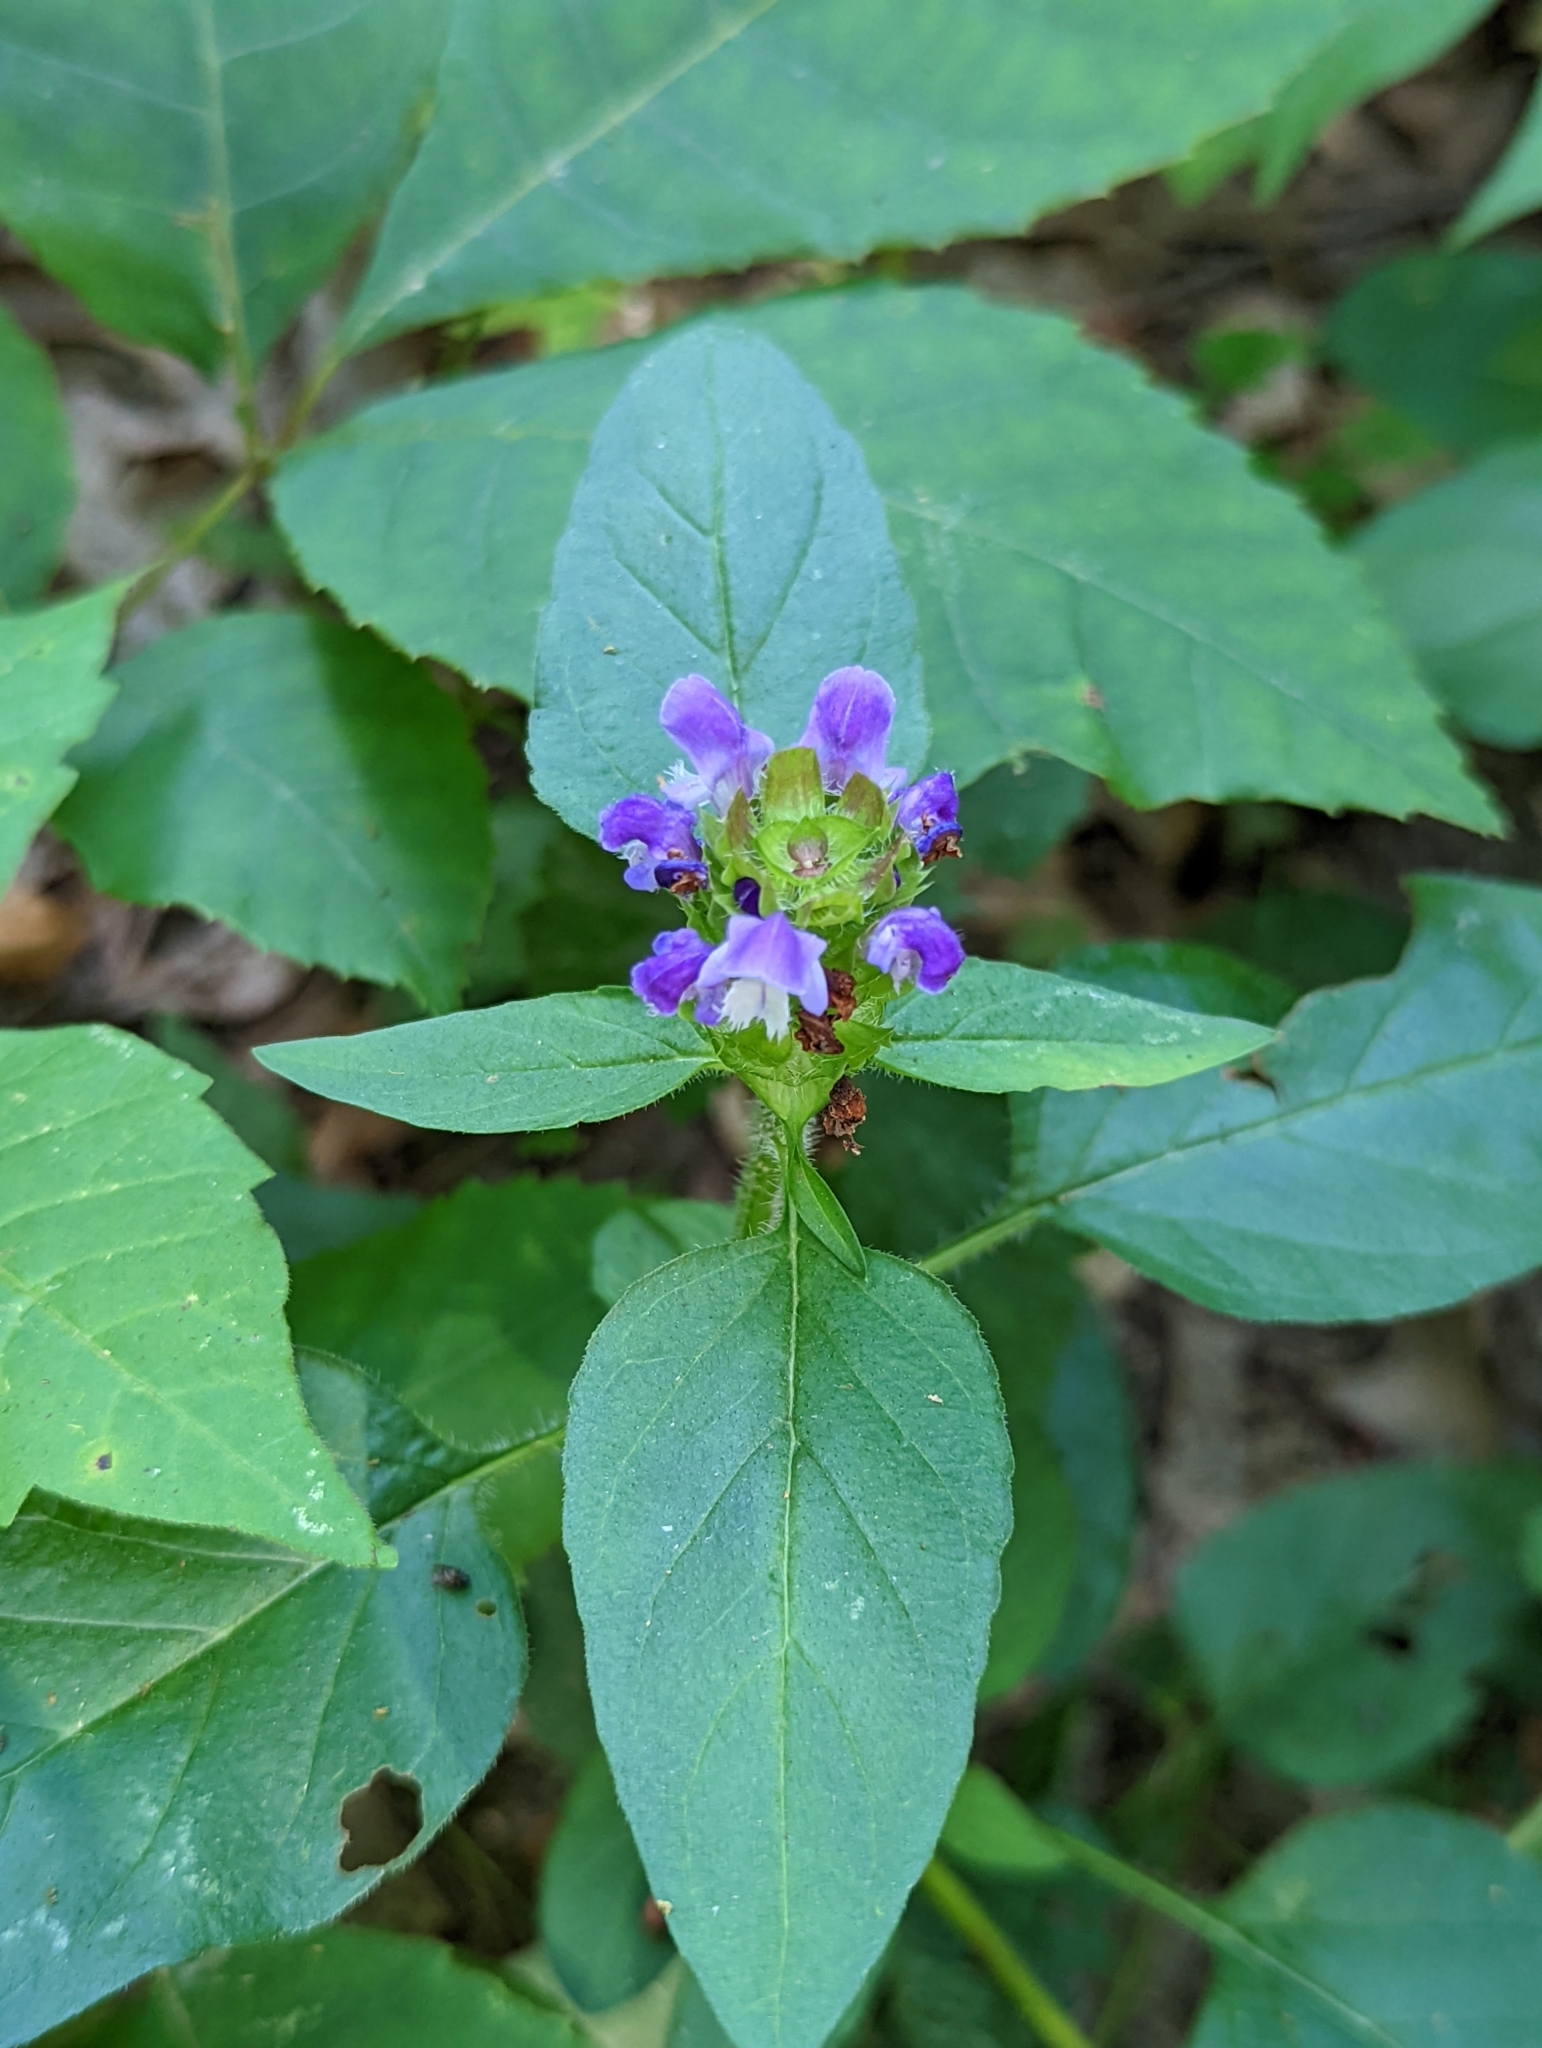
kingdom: Plantae
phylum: Tracheophyta
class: Magnoliopsida
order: Lamiales
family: Lamiaceae
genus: Prunella
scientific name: Prunella vulgaris
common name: Heal-all
